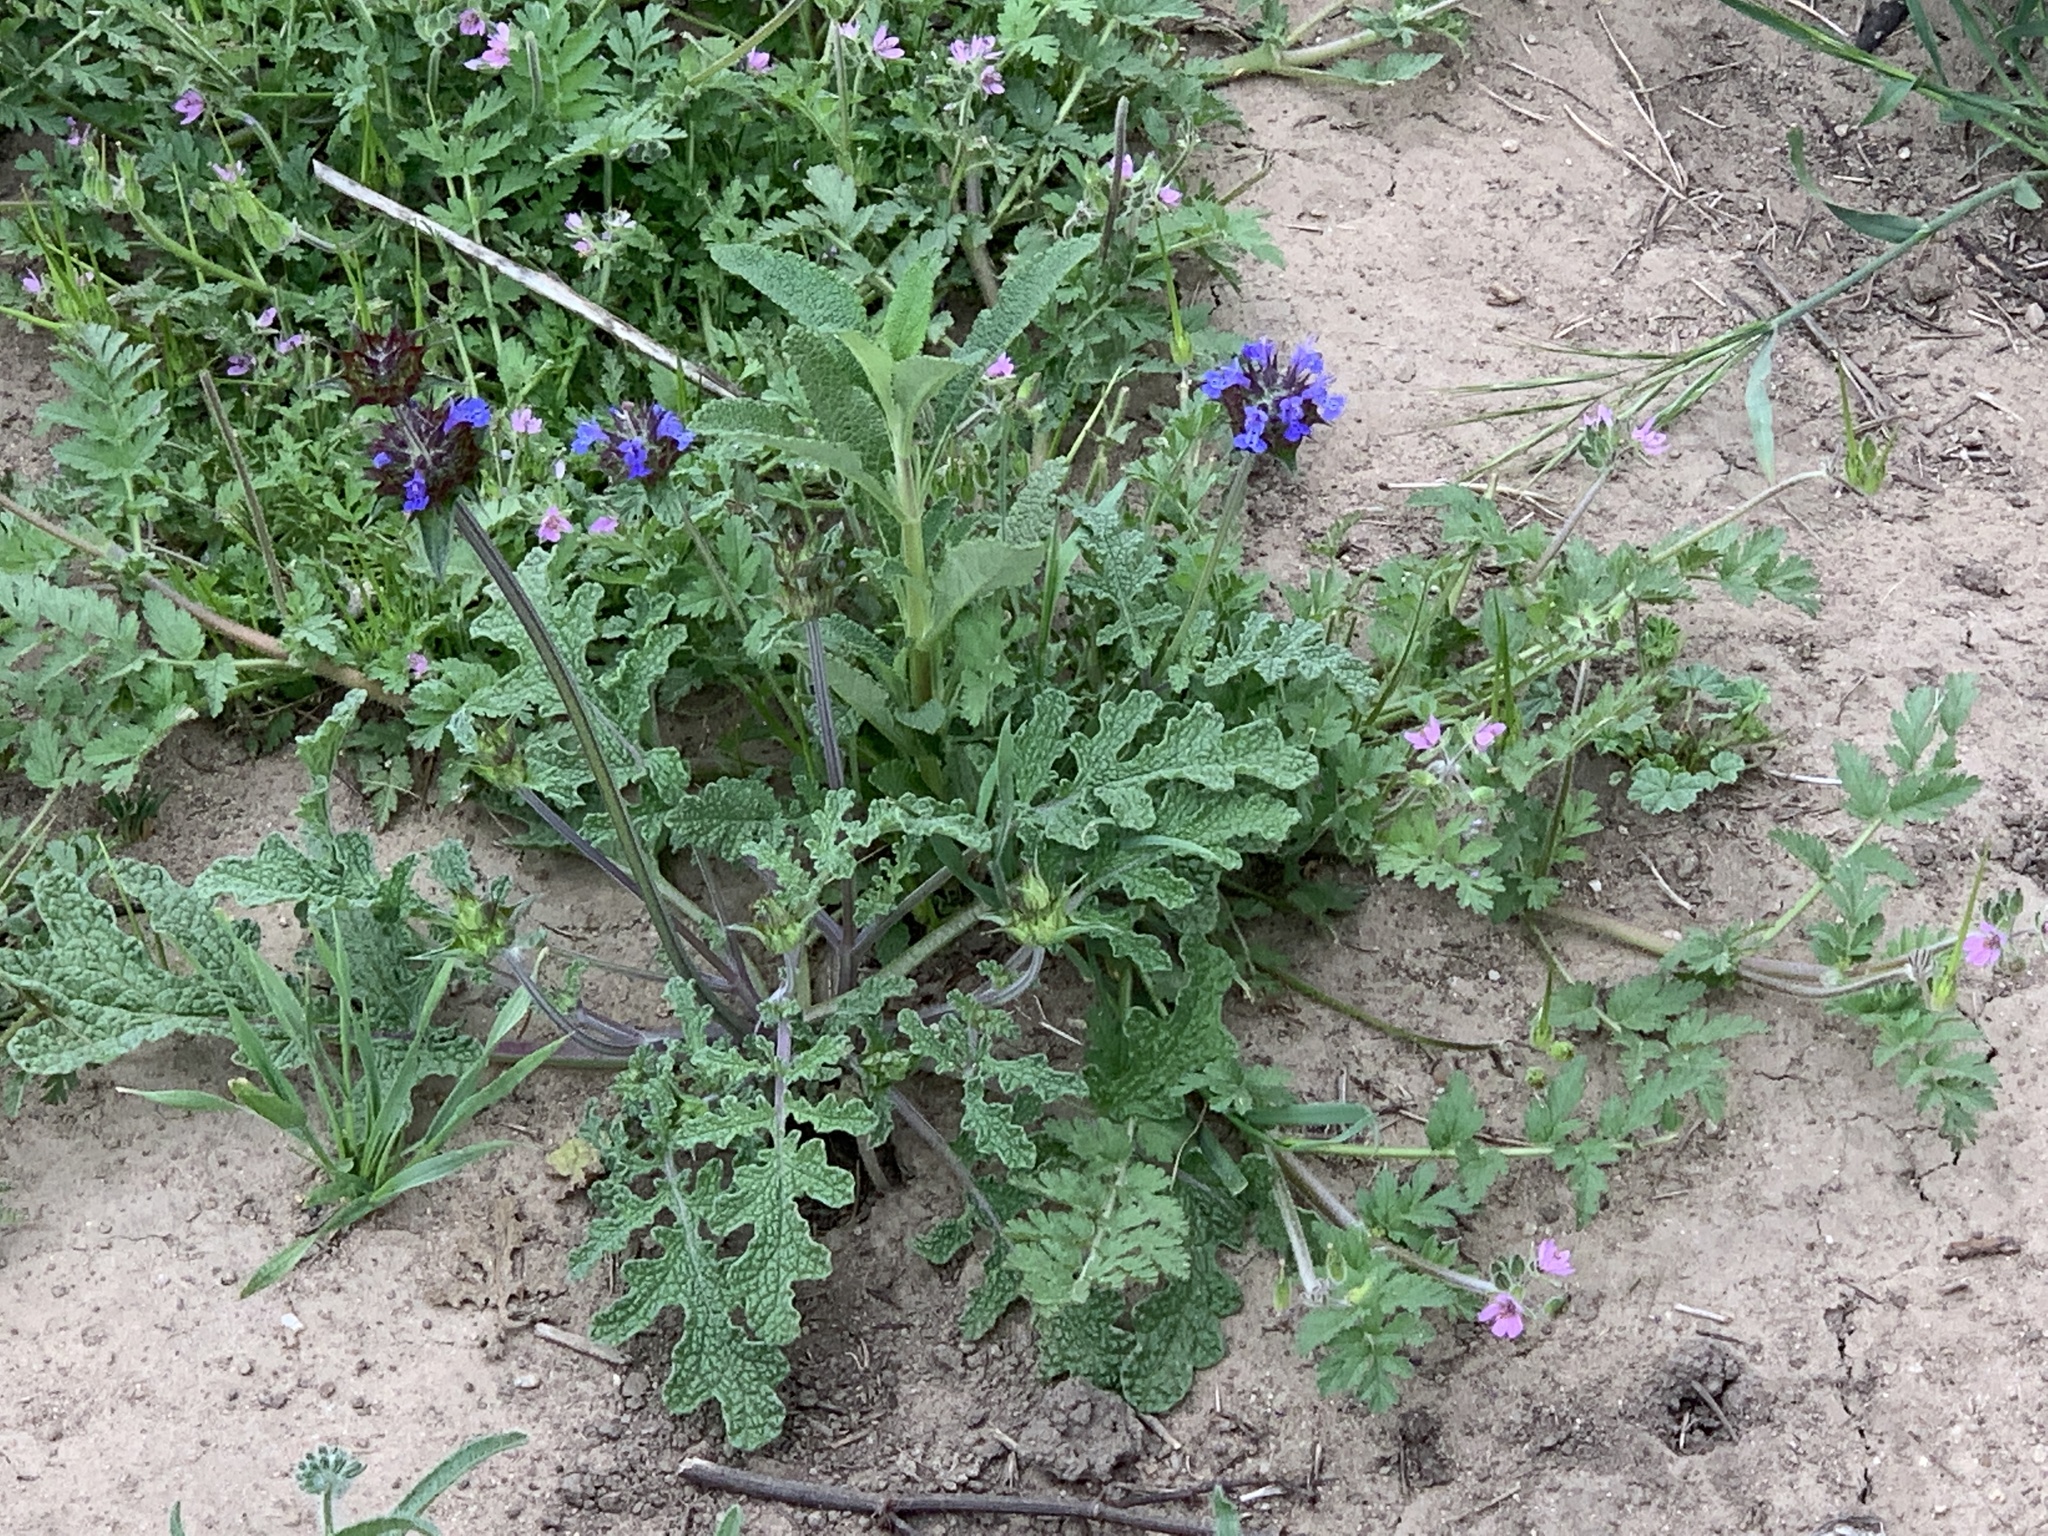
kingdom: Plantae
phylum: Tracheophyta
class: Magnoliopsida
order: Lamiales
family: Lamiaceae
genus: Salvia
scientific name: Salvia columbariae
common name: Chia
